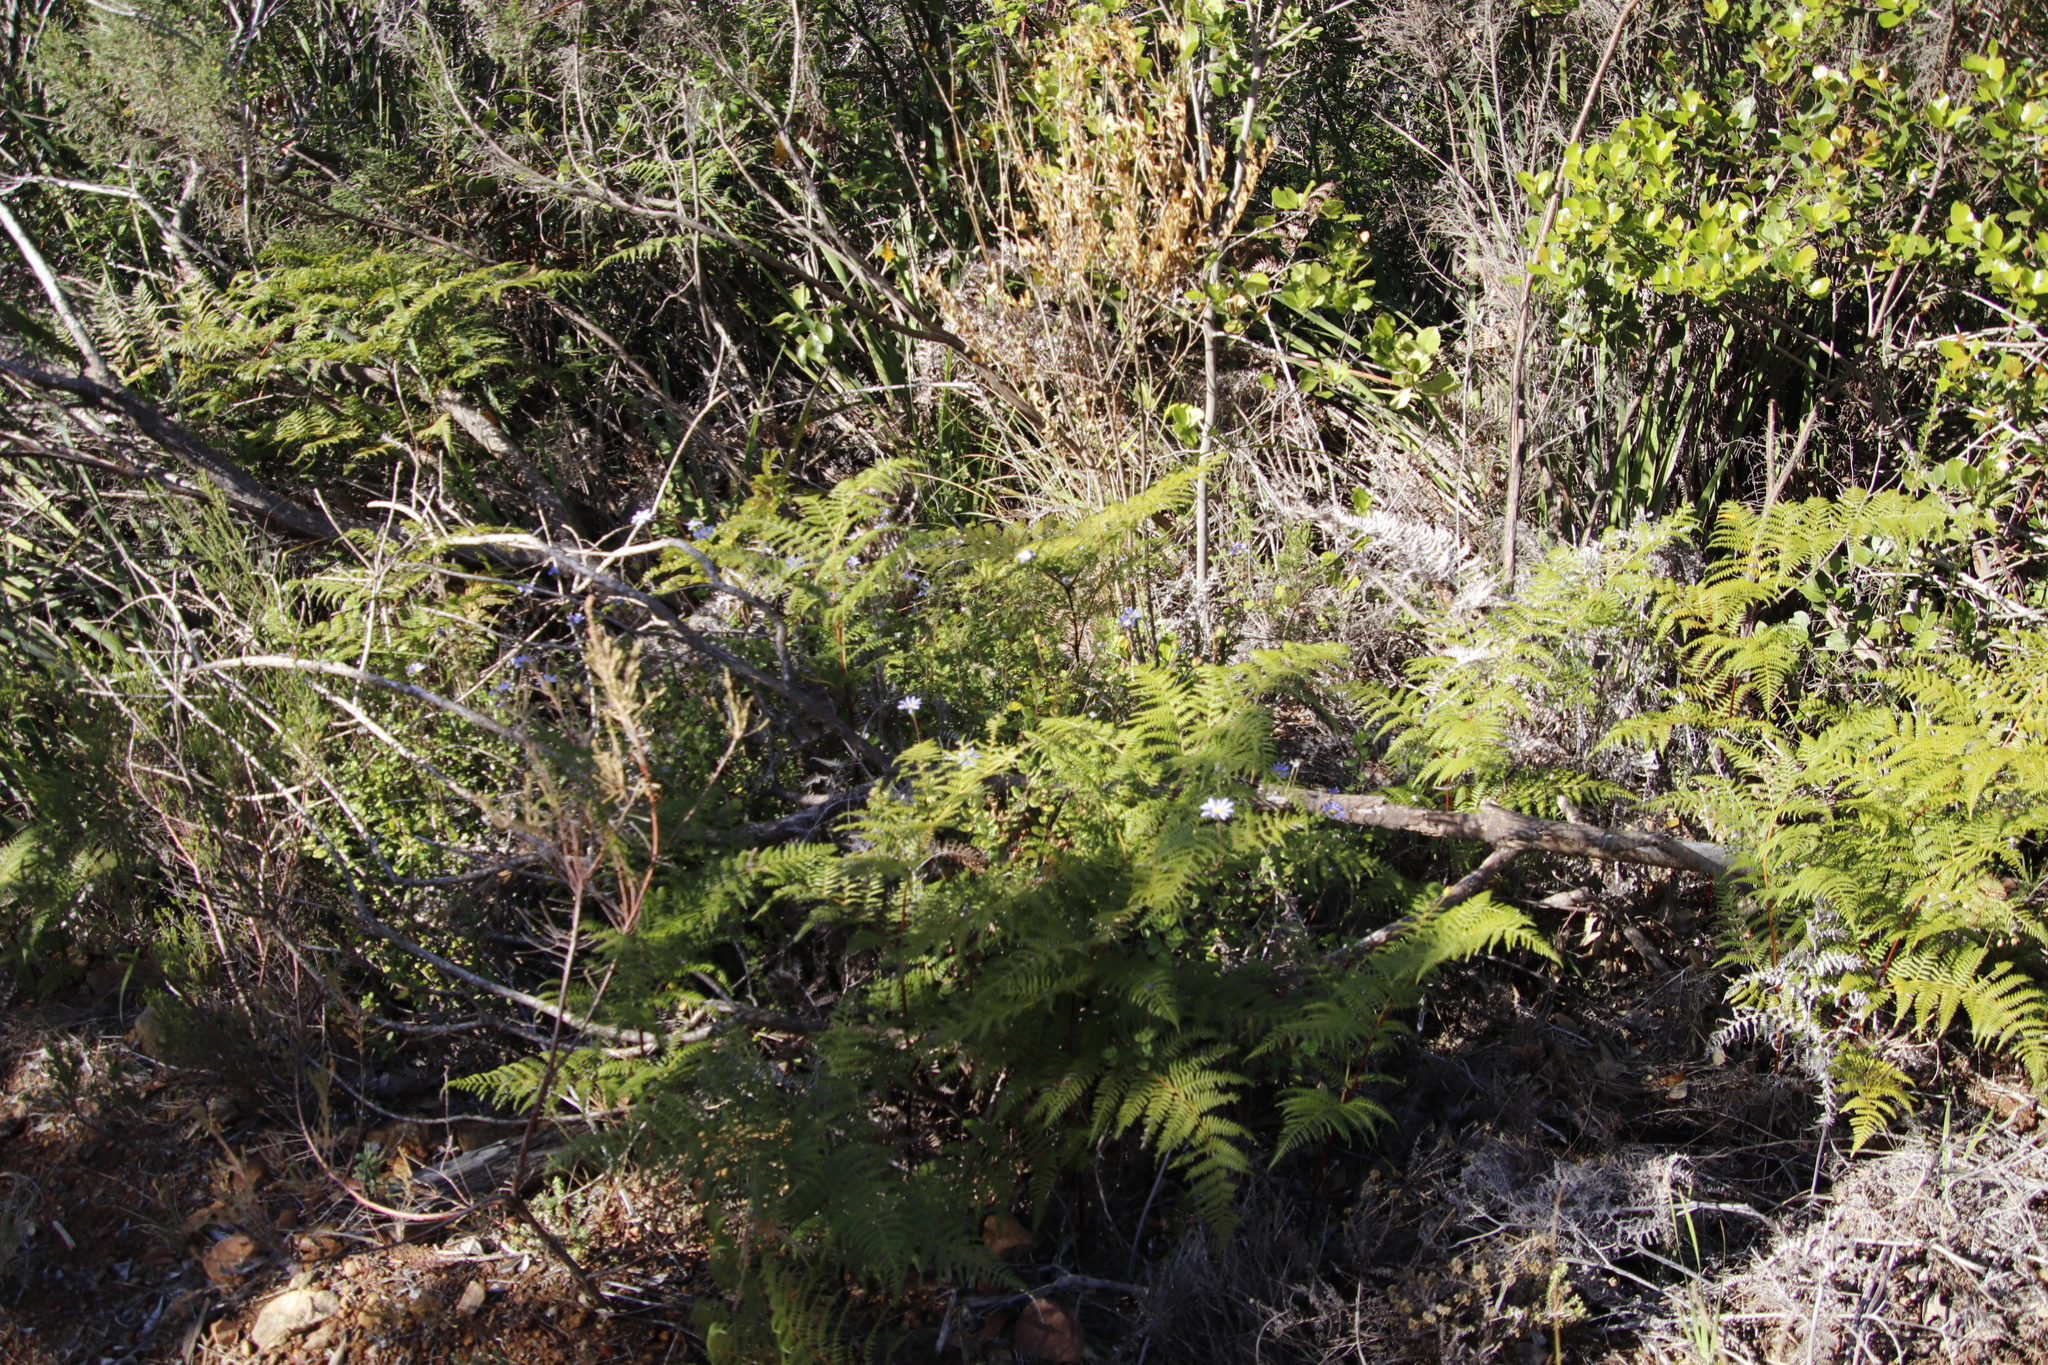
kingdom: Plantae
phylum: Tracheophyta
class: Polypodiopsida
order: Polypodiales
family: Dennstaedtiaceae
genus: Pteridium
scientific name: Pteridium aquilinum
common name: Bracken
